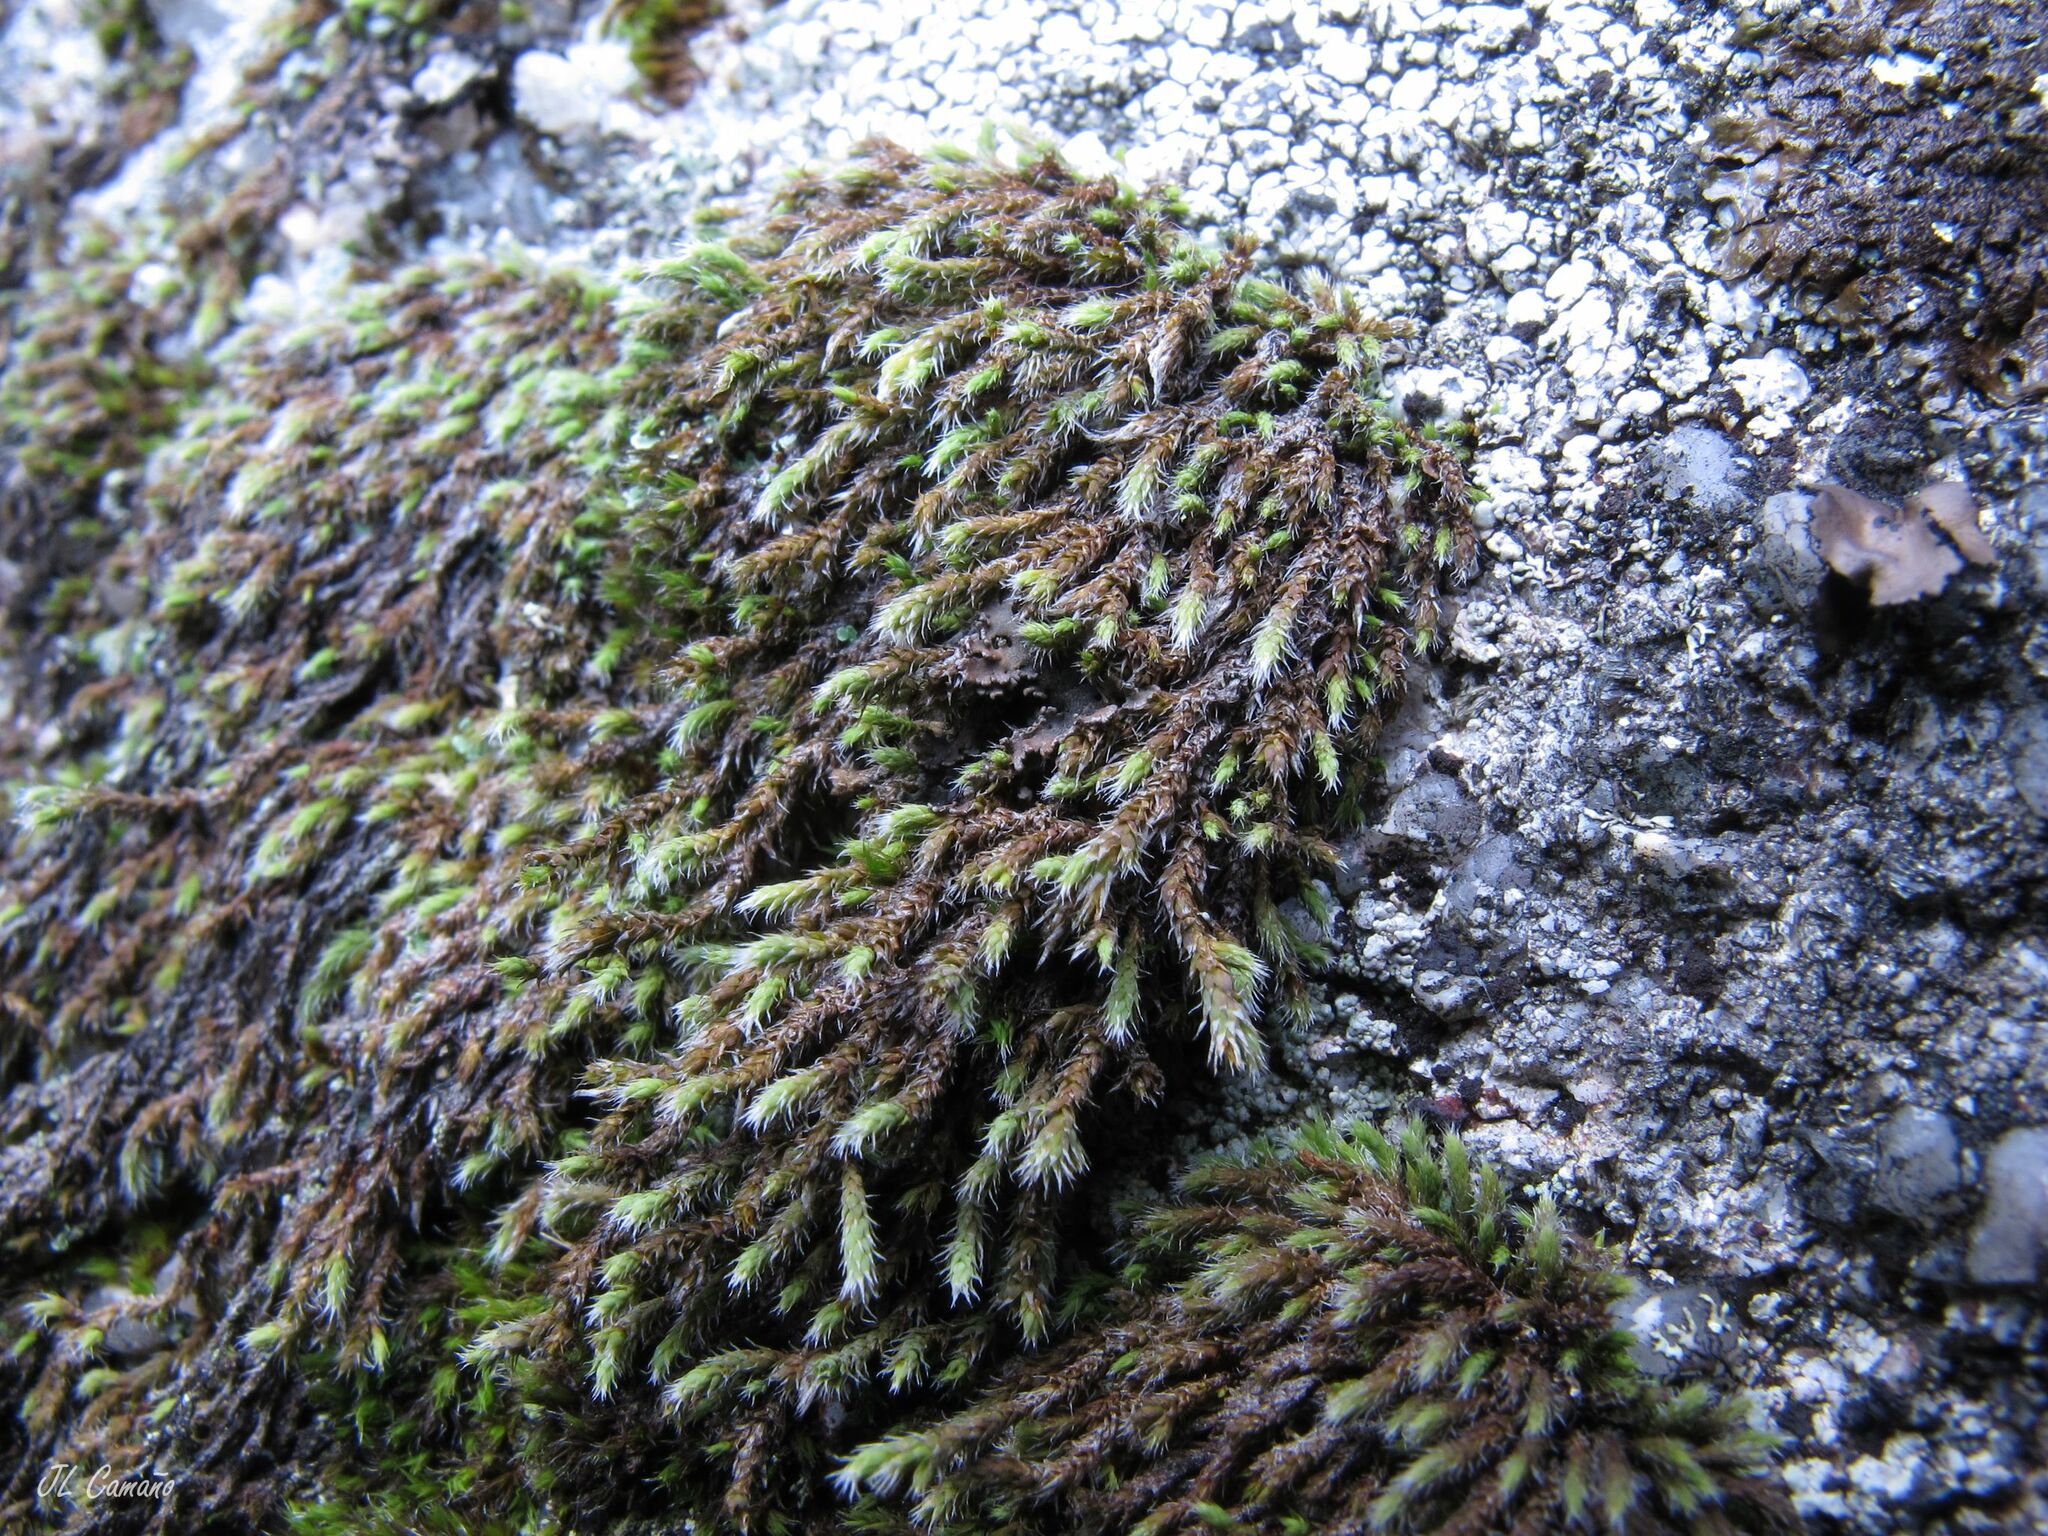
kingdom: Plantae
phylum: Bryophyta
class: Bryopsida
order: Hedwigiales
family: Hedwigiaceae
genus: Hedwigia
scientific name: Hedwigia stellata
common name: Starry hoar-moss
